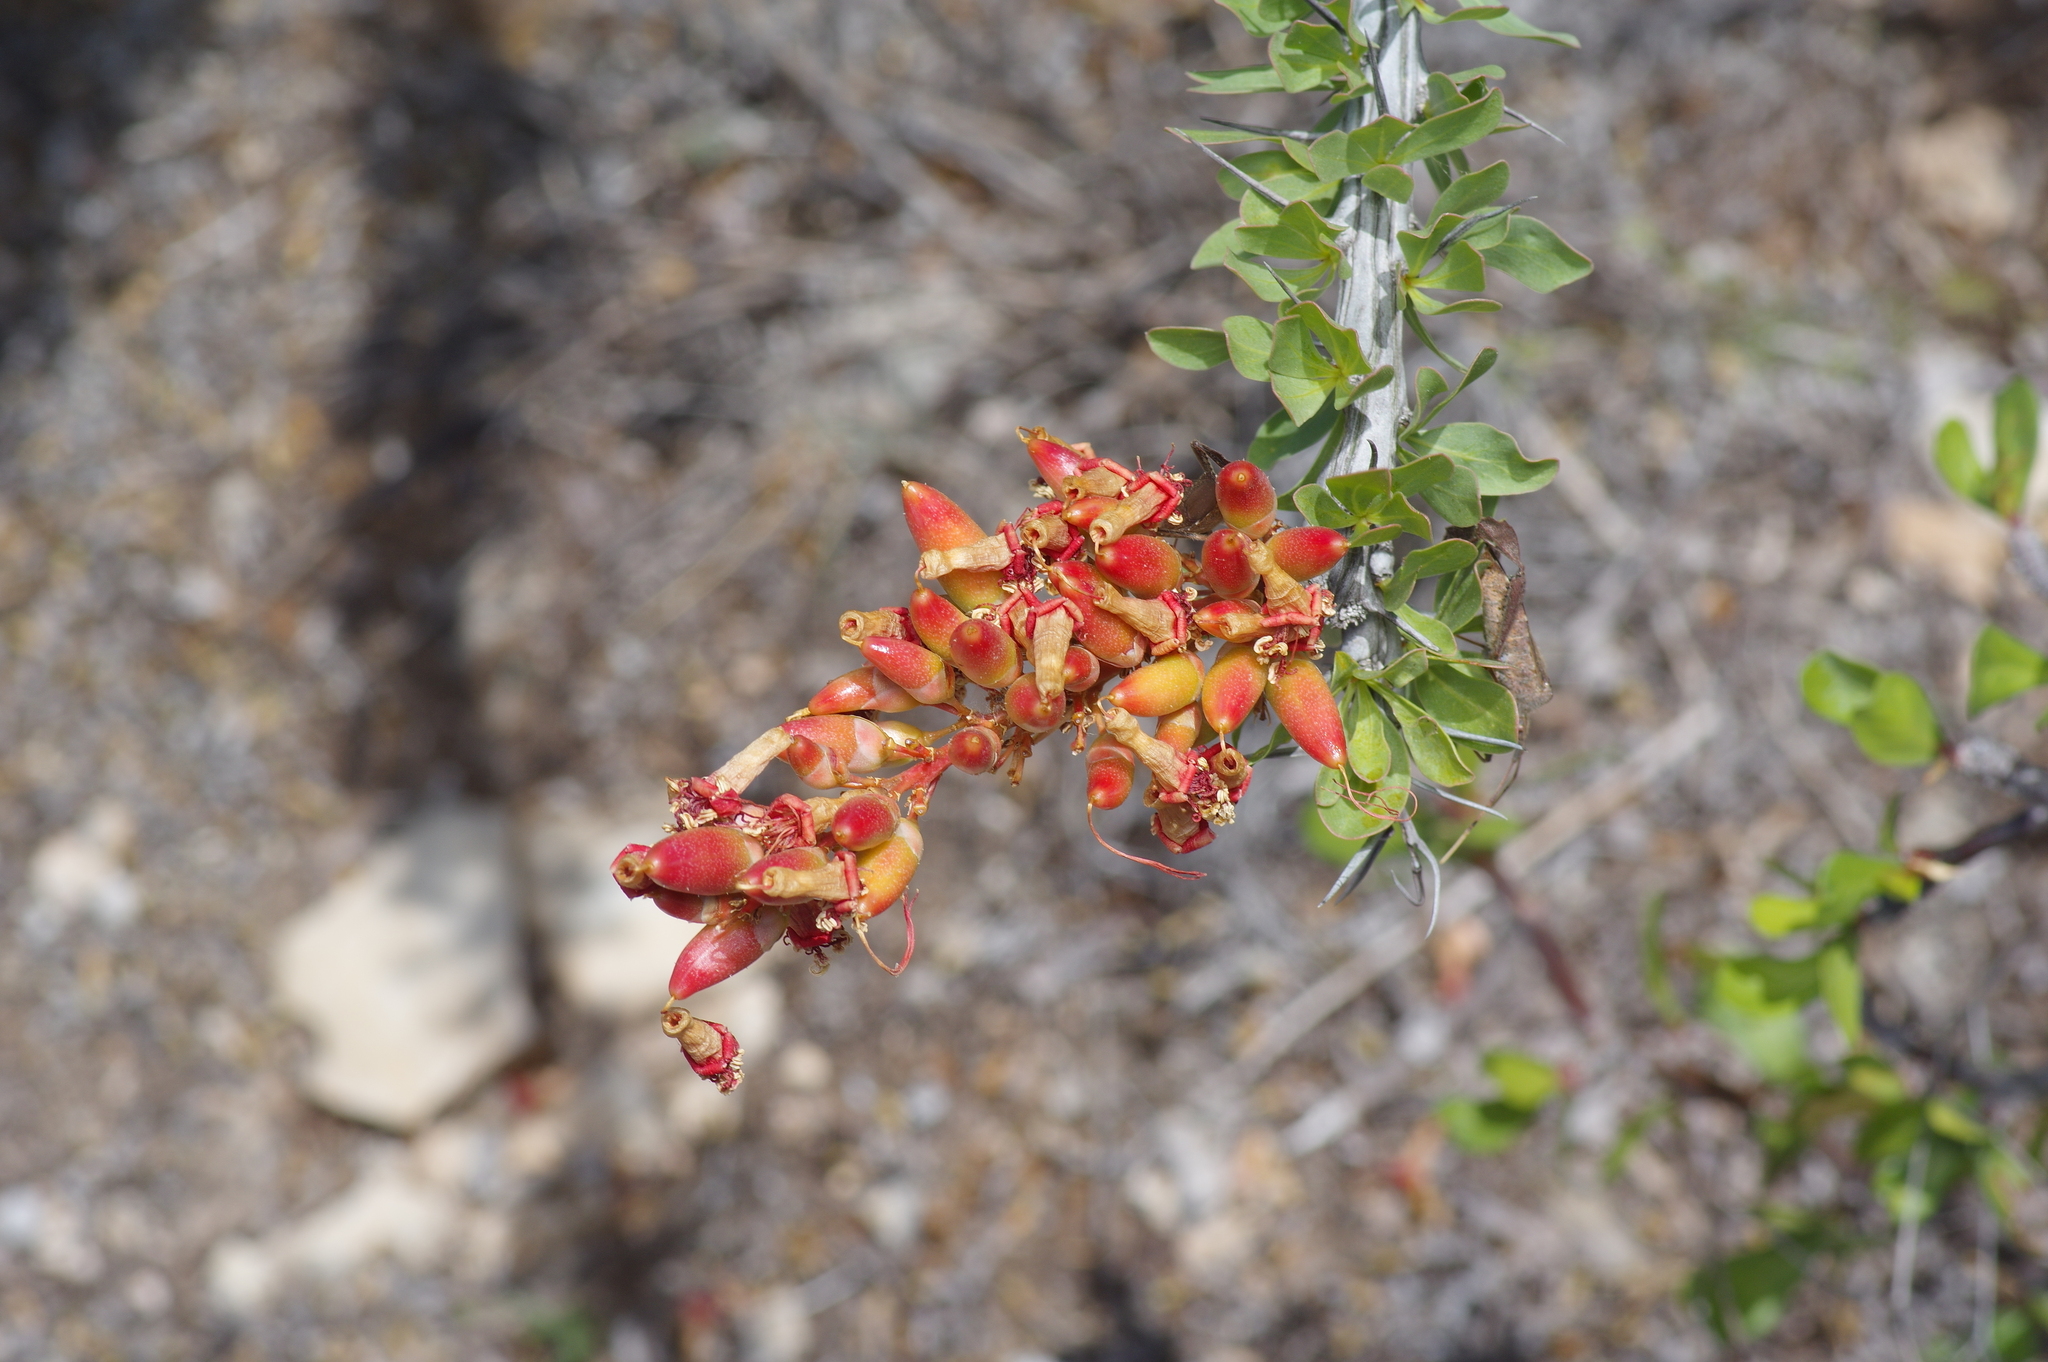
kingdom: Plantae
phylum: Tracheophyta
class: Magnoliopsida
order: Ericales
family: Fouquieriaceae
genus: Fouquieria
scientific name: Fouquieria splendens
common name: Vine-cactus
